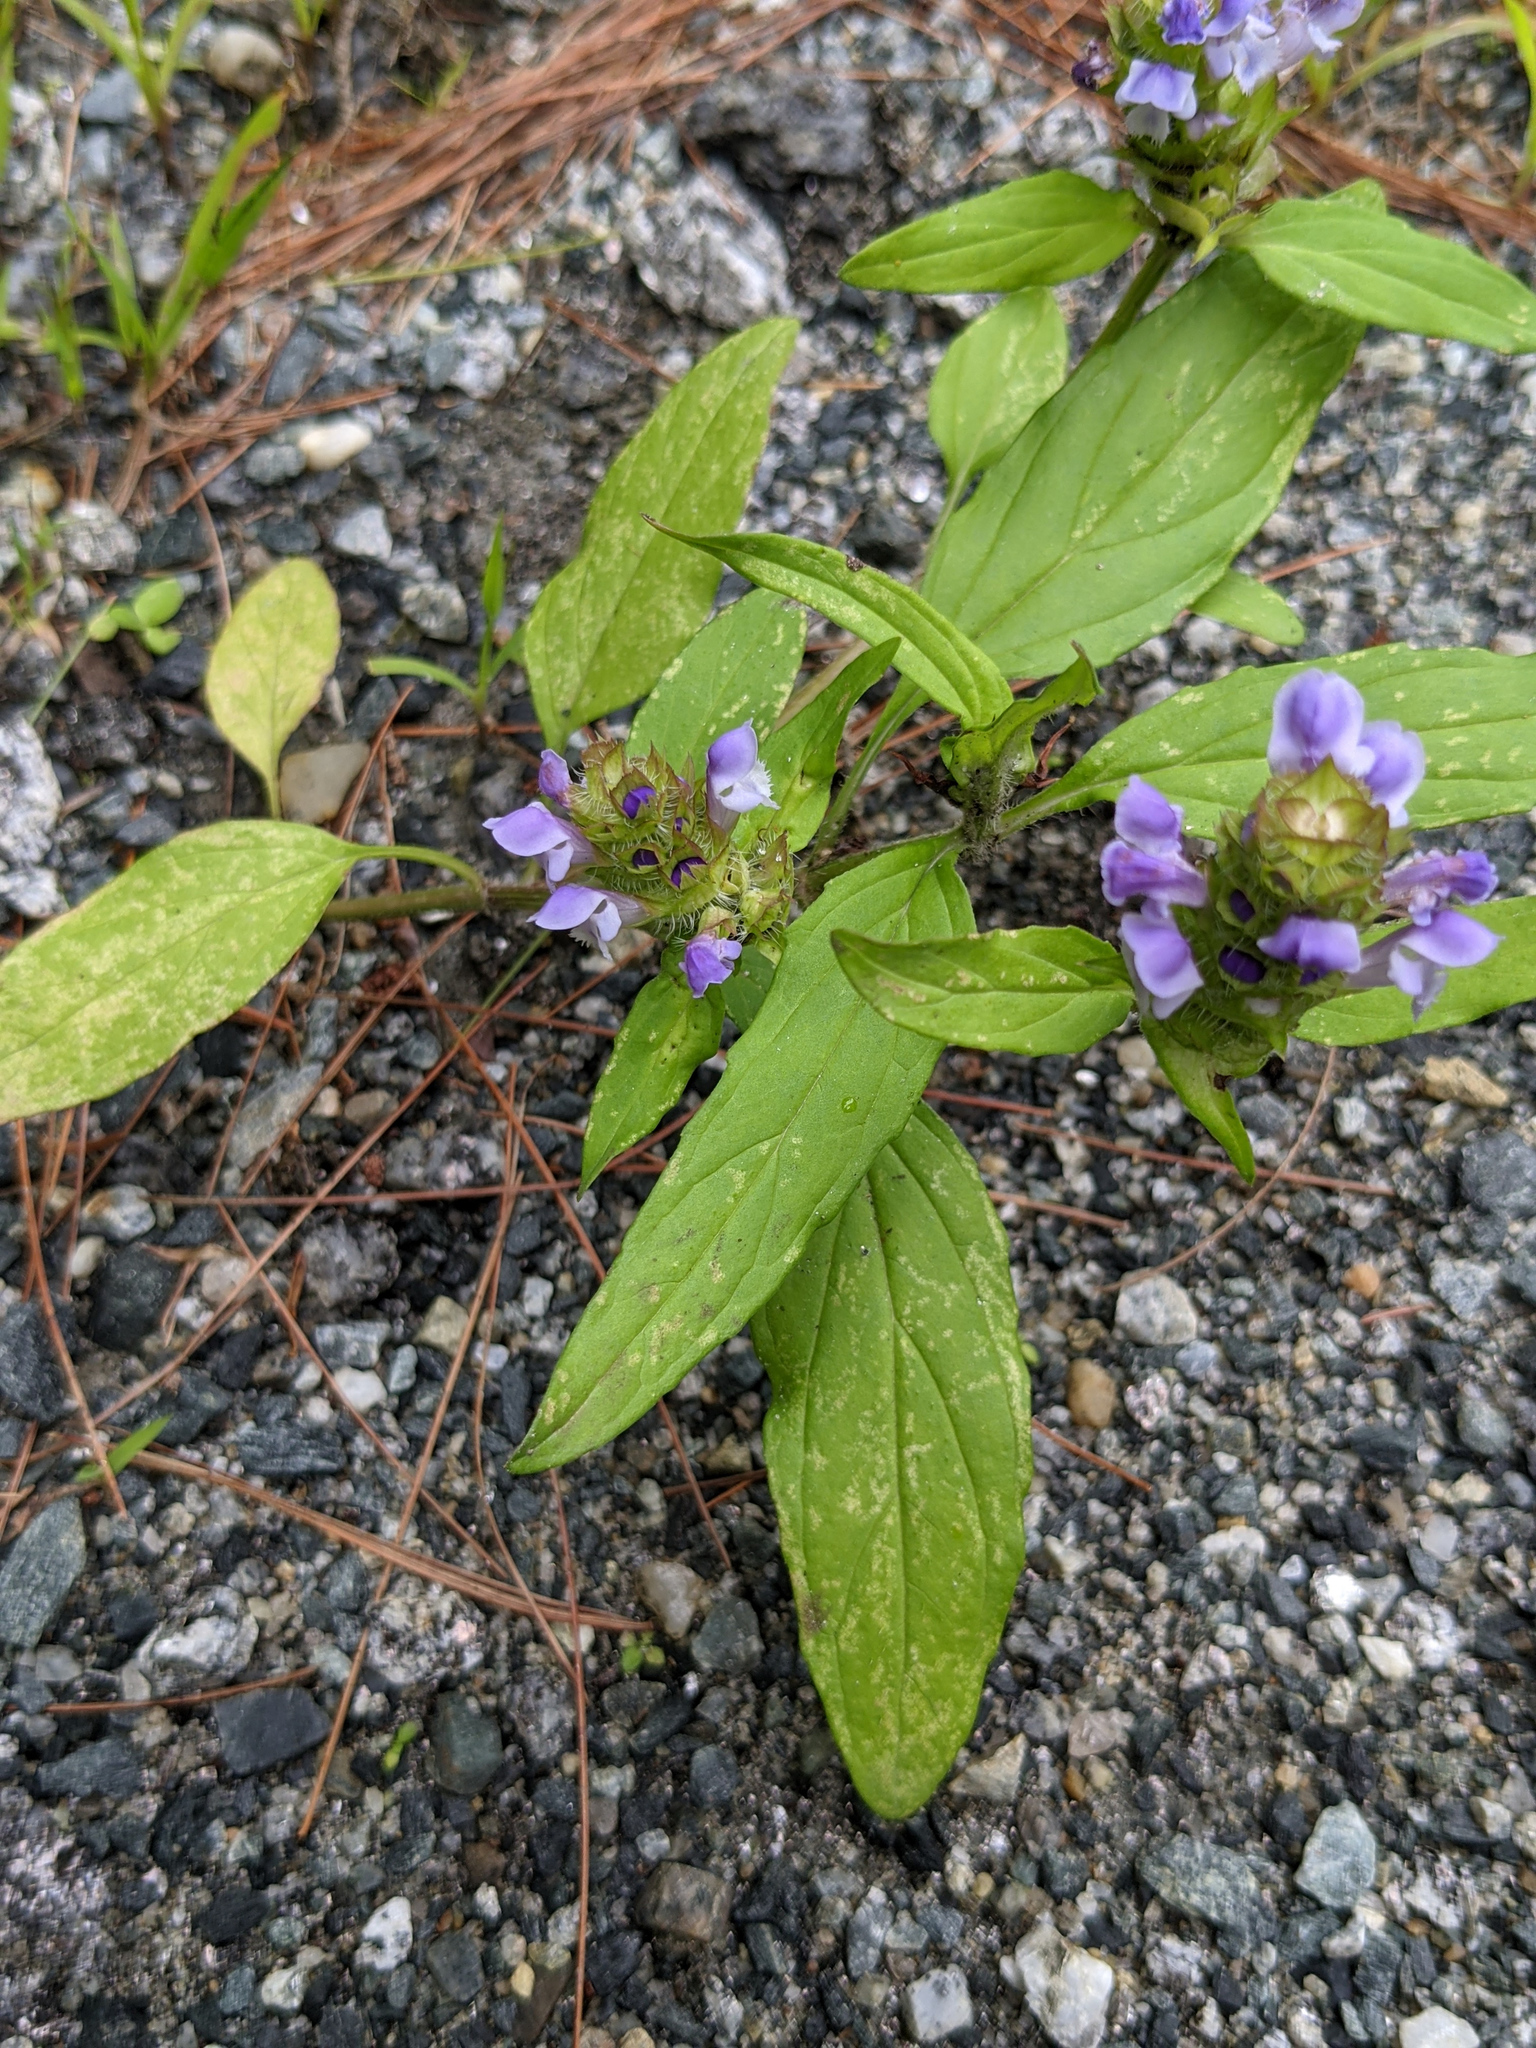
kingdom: Plantae
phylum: Tracheophyta
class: Magnoliopsida
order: Lamiales
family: Lamiaceae
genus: Prunella
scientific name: Prunella vulgaris
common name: Heal-all
